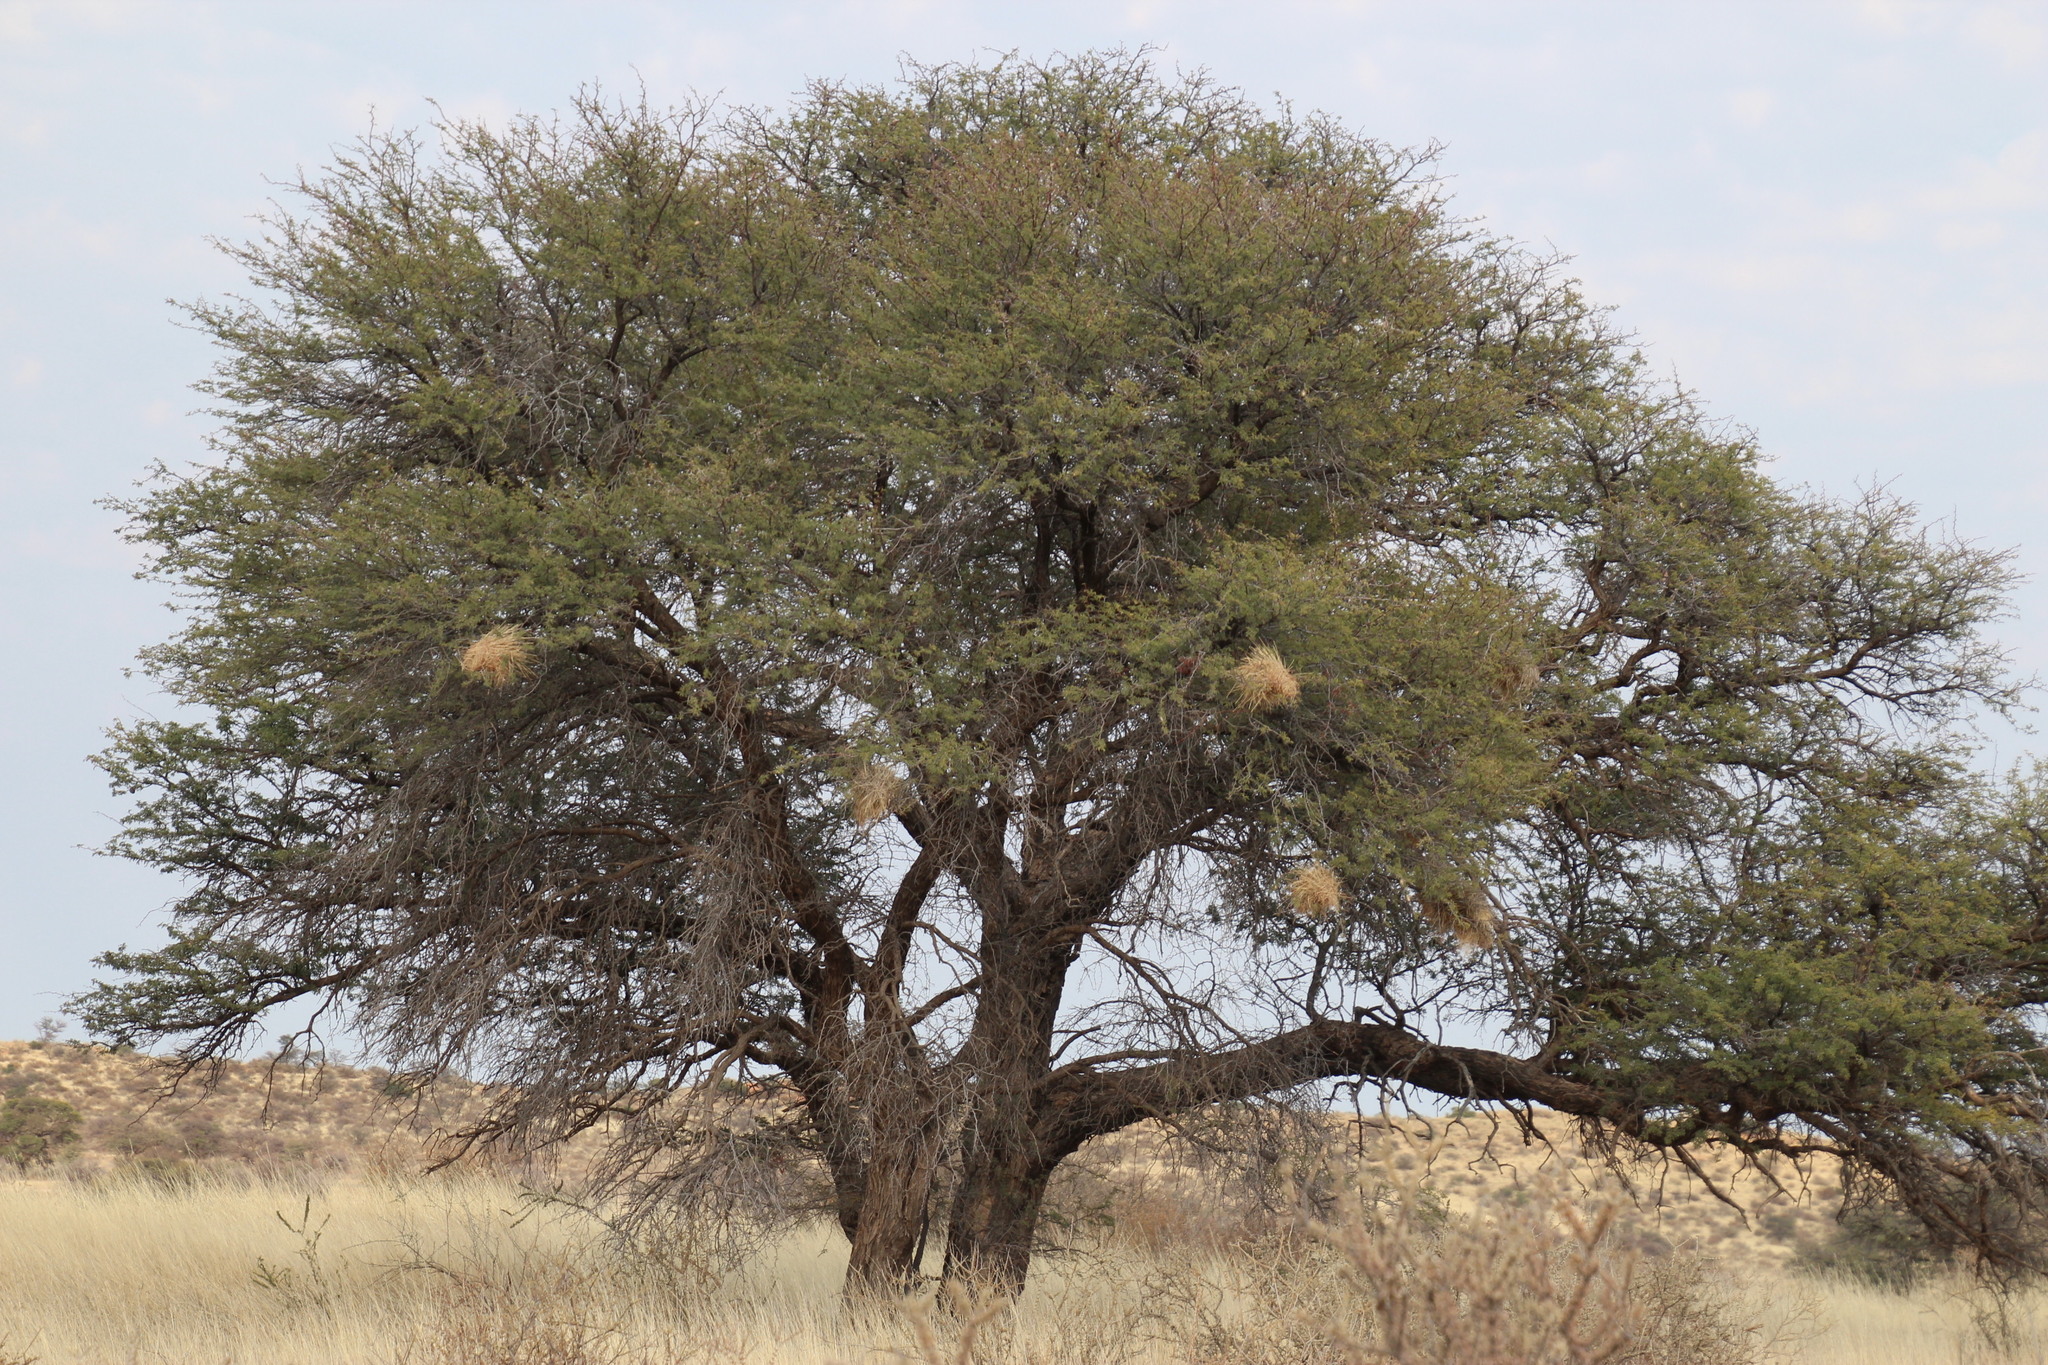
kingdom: Plantae
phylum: Tracheophyta
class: Magnoliopsida
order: Fabales
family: Fabaceae
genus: Vachellia
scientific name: Vachellia erioloba
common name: Camel thorn
